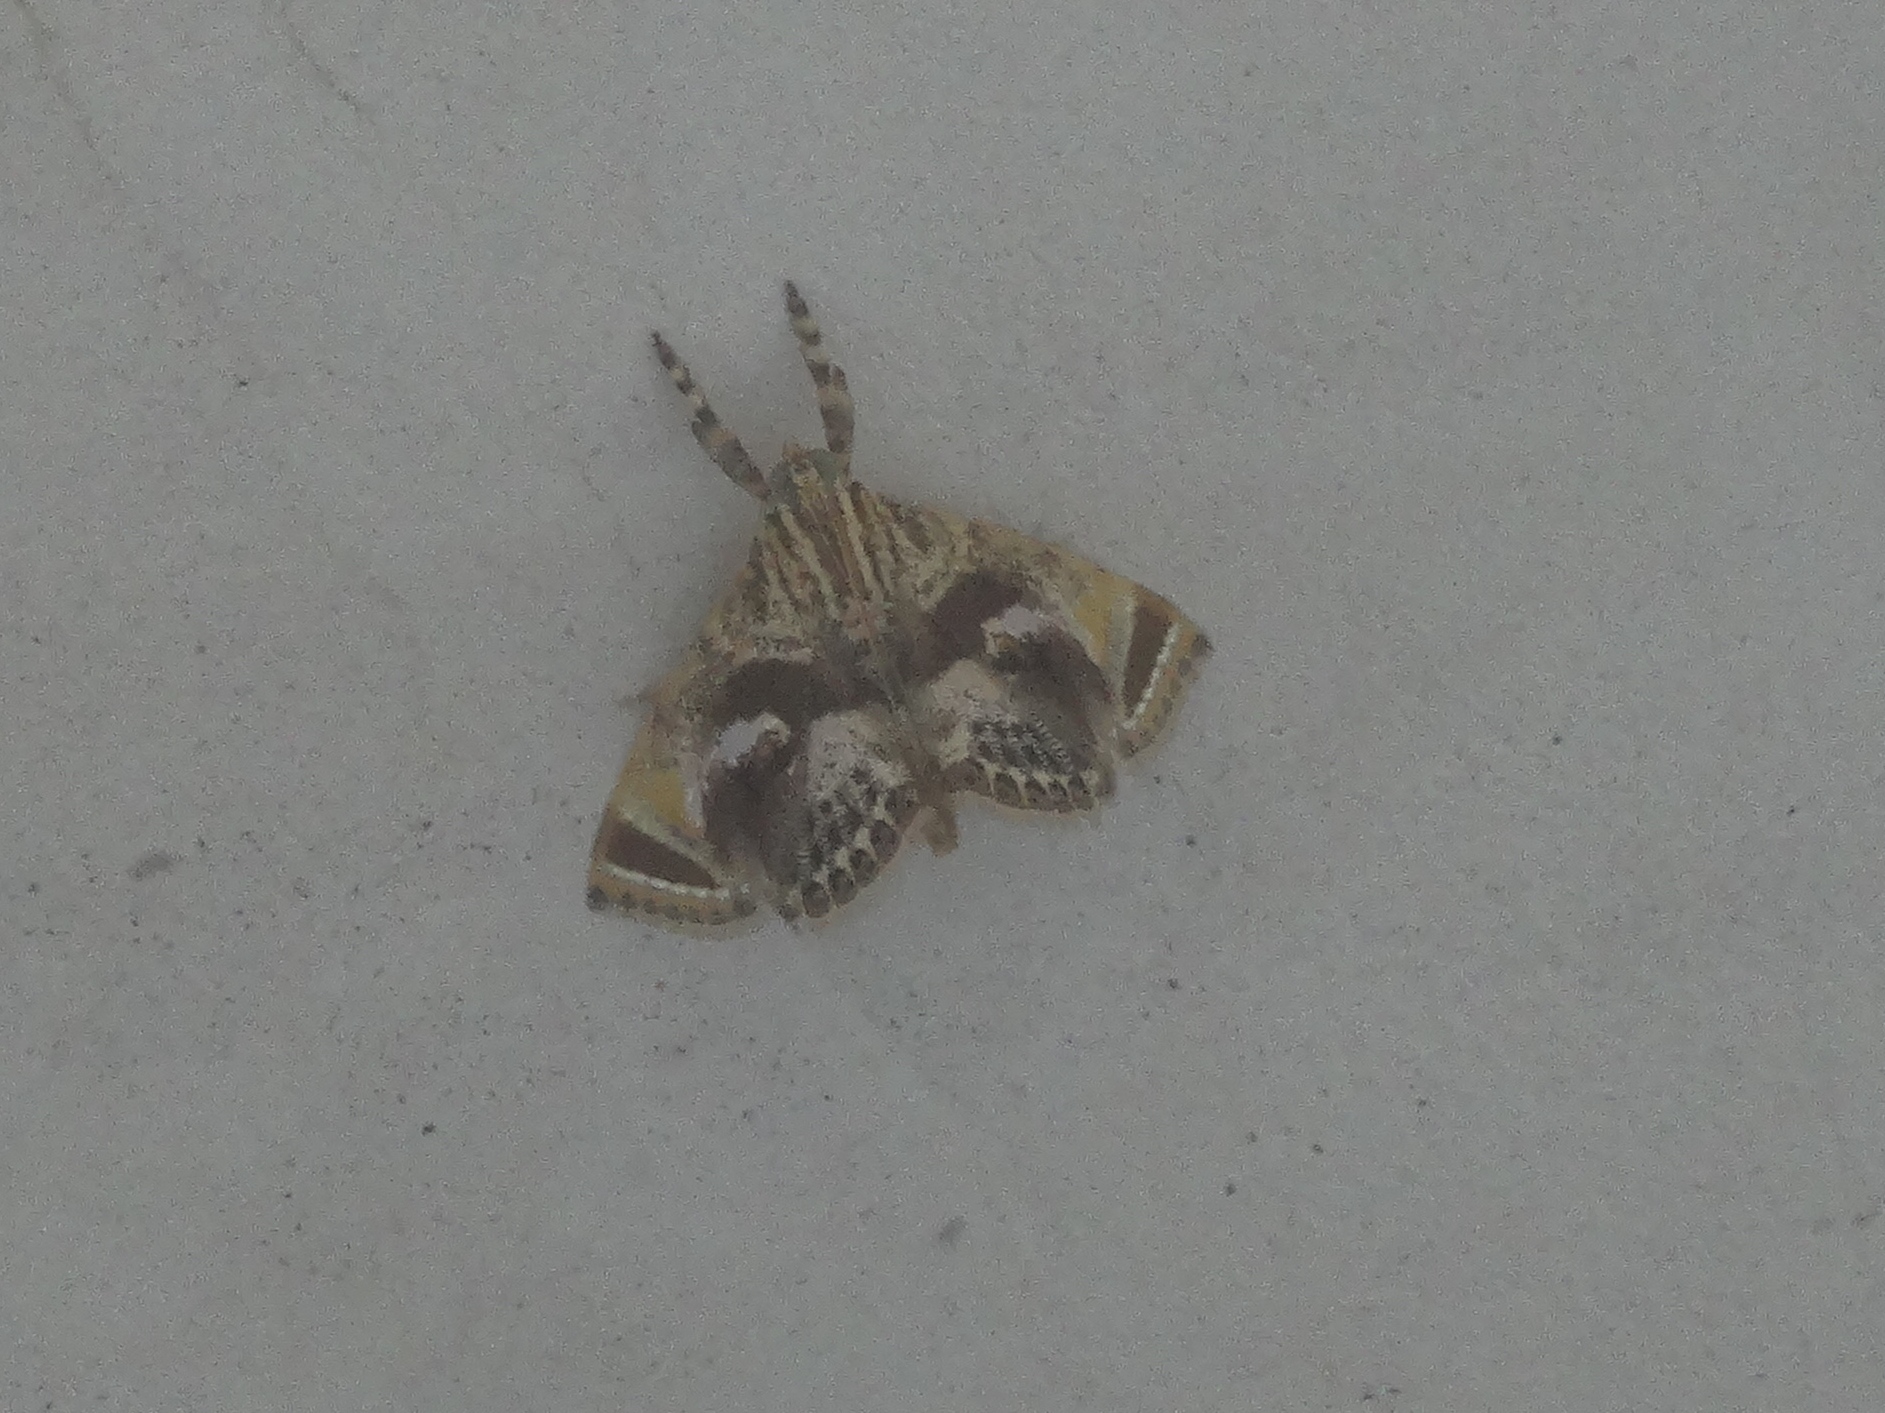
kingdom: Animalia
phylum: Arthropoda
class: Insecta
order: Lepidoptera
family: Crambidae
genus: Cosmopterosis
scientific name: Cosmopterosis
